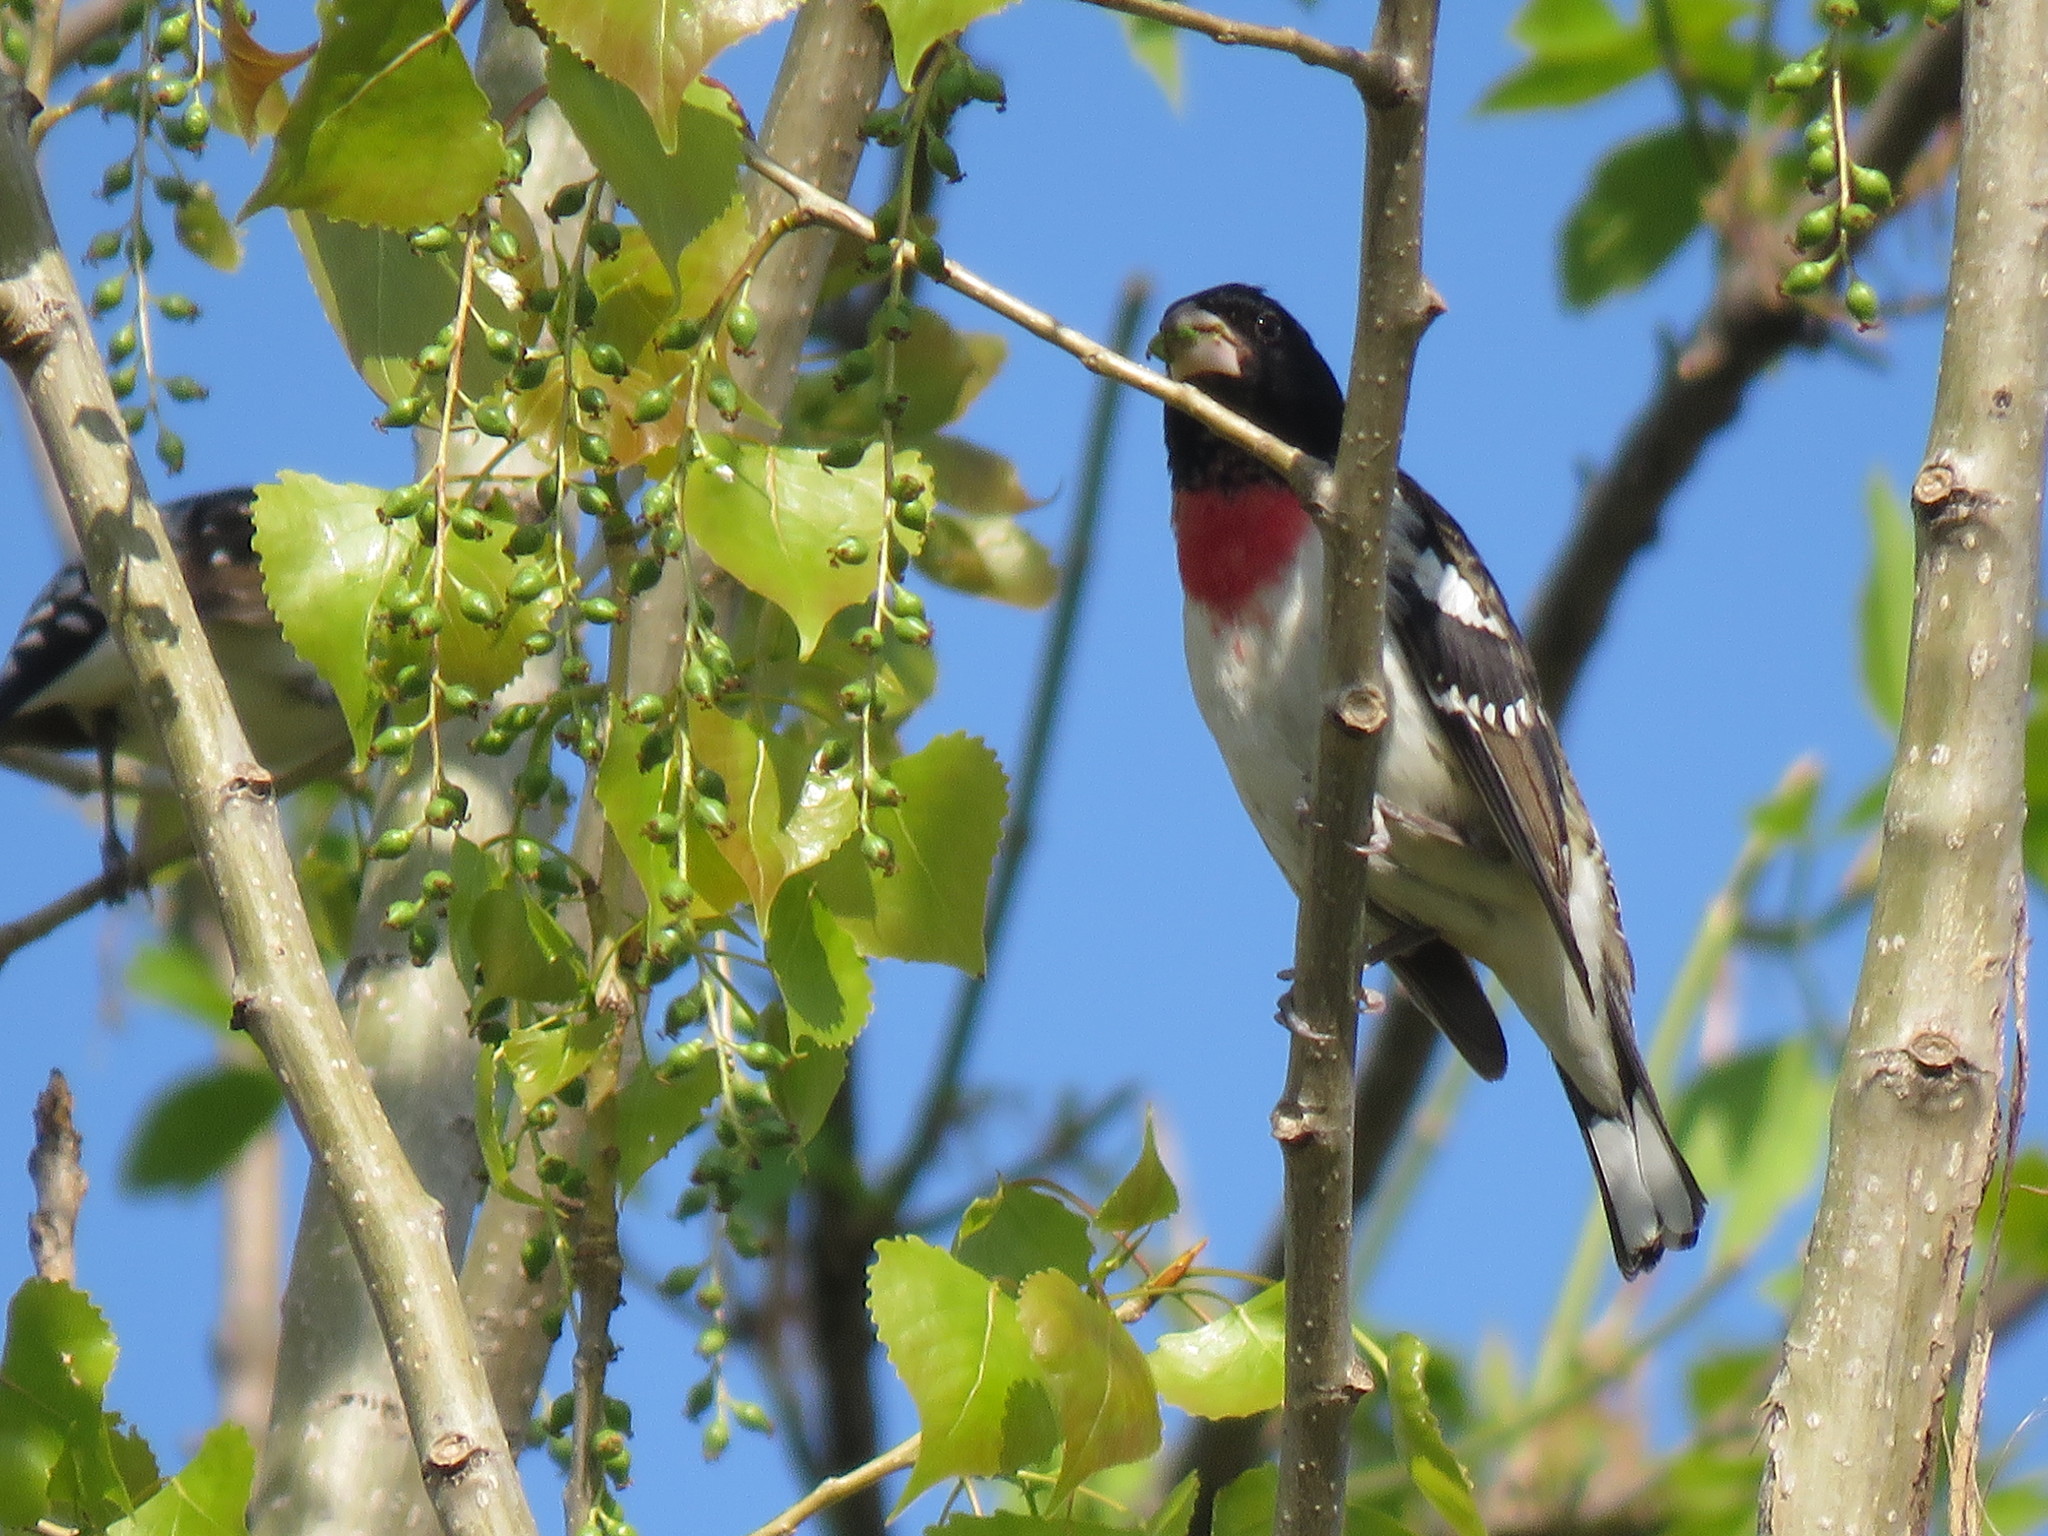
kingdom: Animalia
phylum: Chordata
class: Aves
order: Passeriformes
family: Cardinalidae
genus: Pheucticus
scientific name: Pheucticus ludovicianus
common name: Rose-breasted grosbeak
